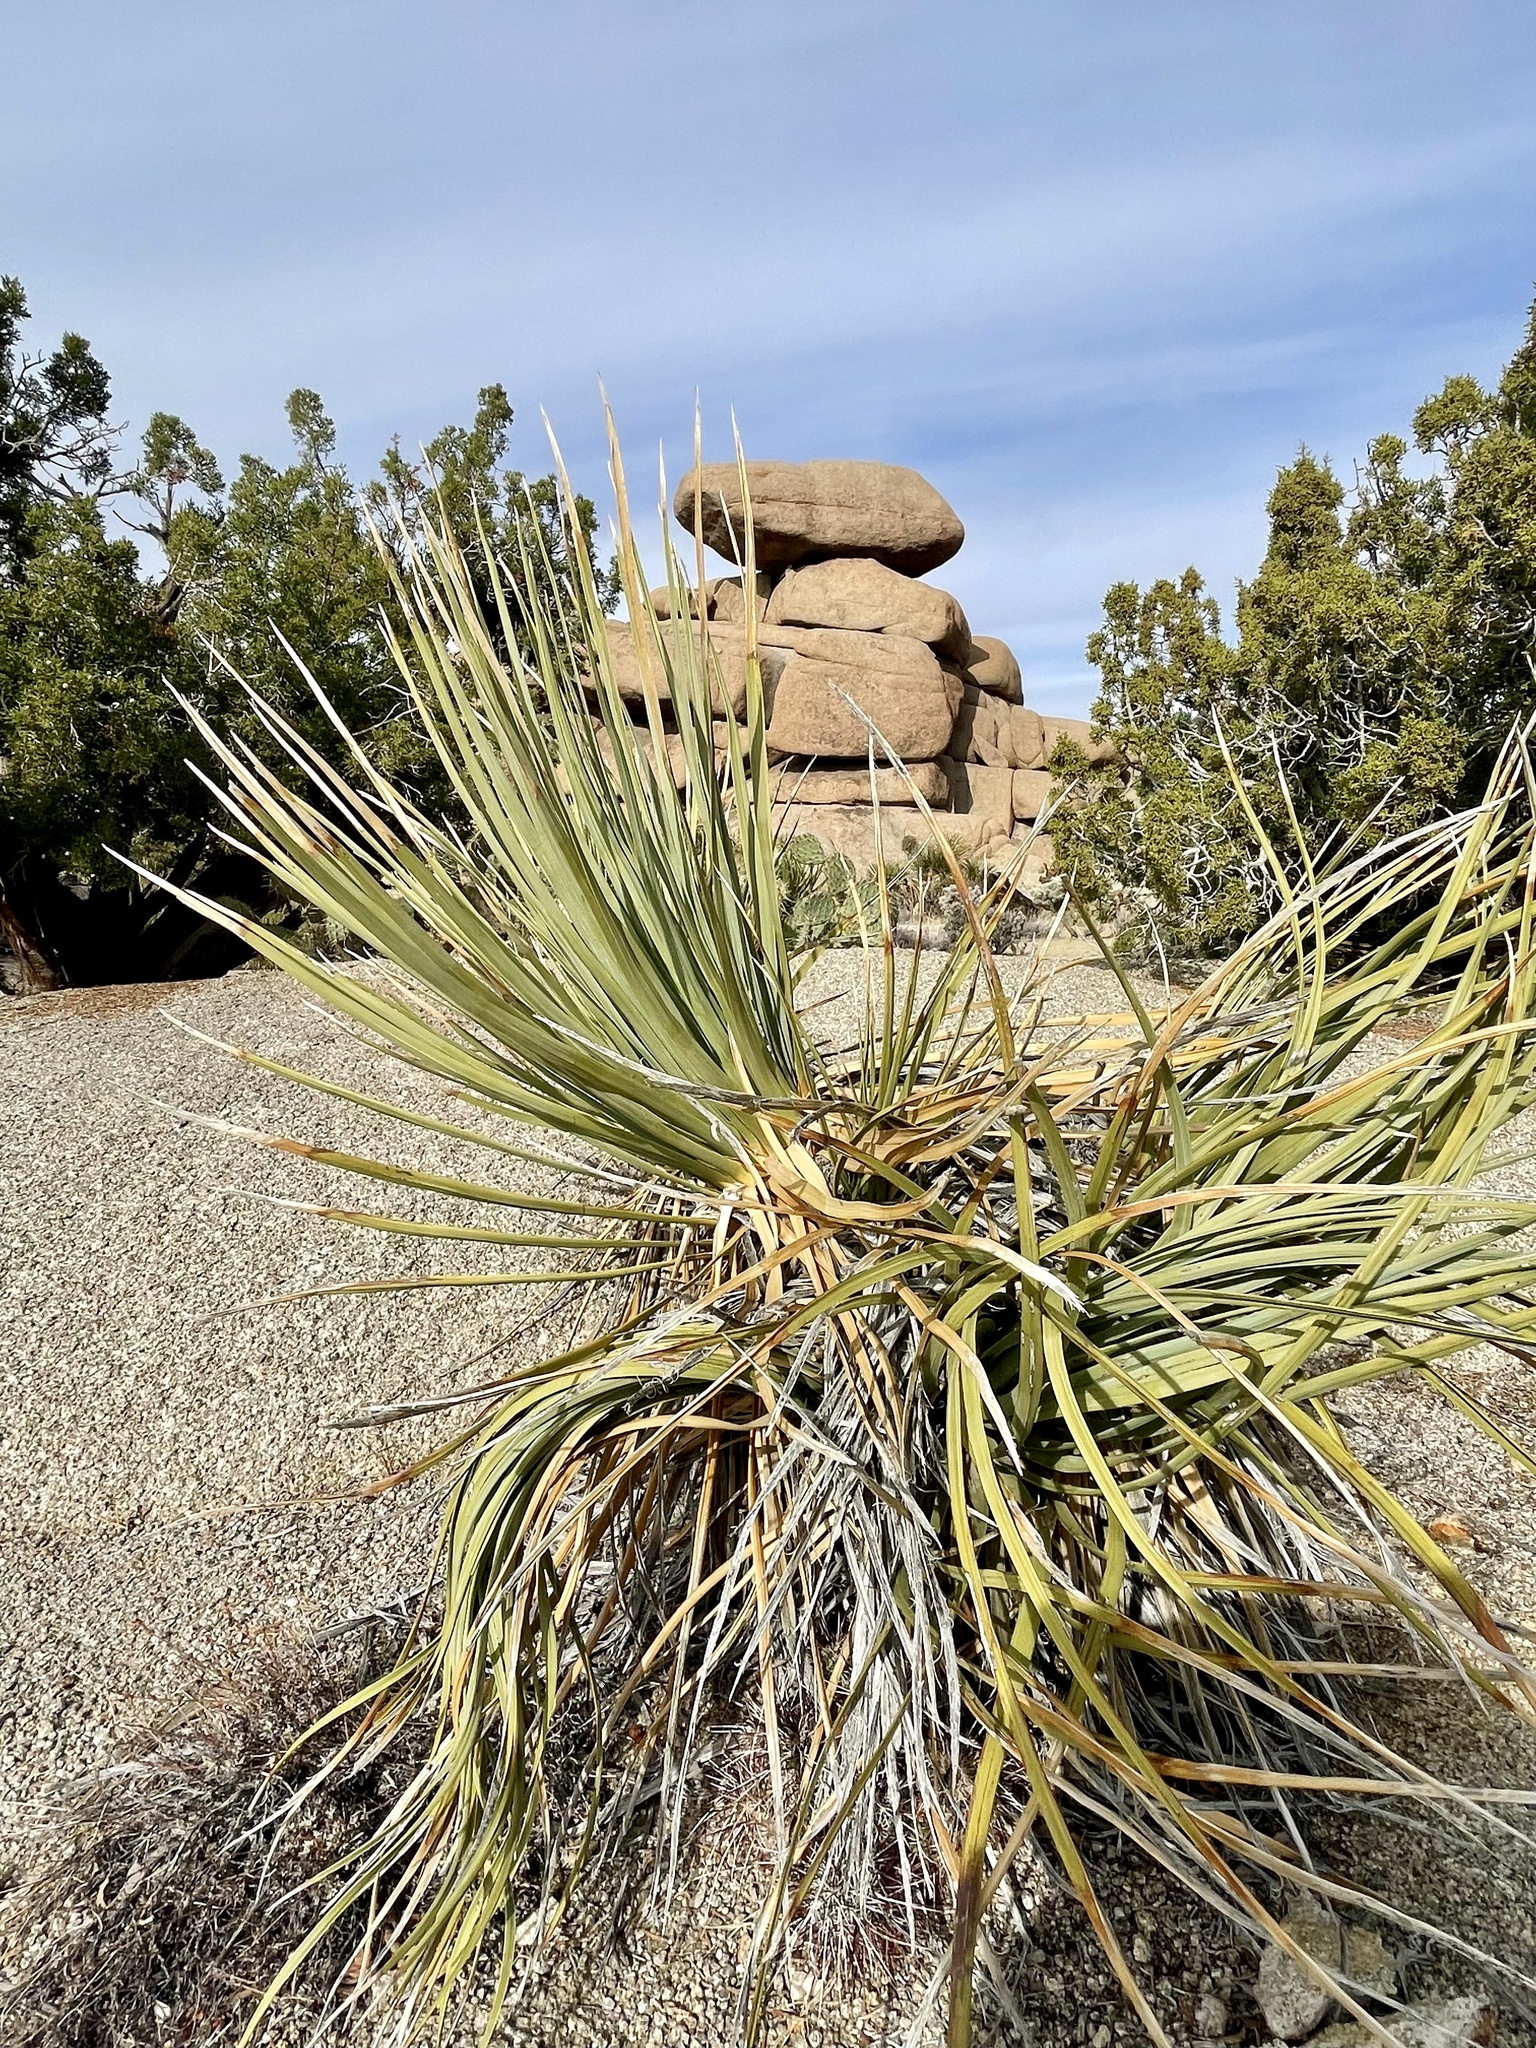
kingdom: Plantae
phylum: Tracheophyta
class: Liliopsida
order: Asparagales
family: Asparagaceae
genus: Nolina
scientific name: Nolina parryi
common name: Parry nolina
